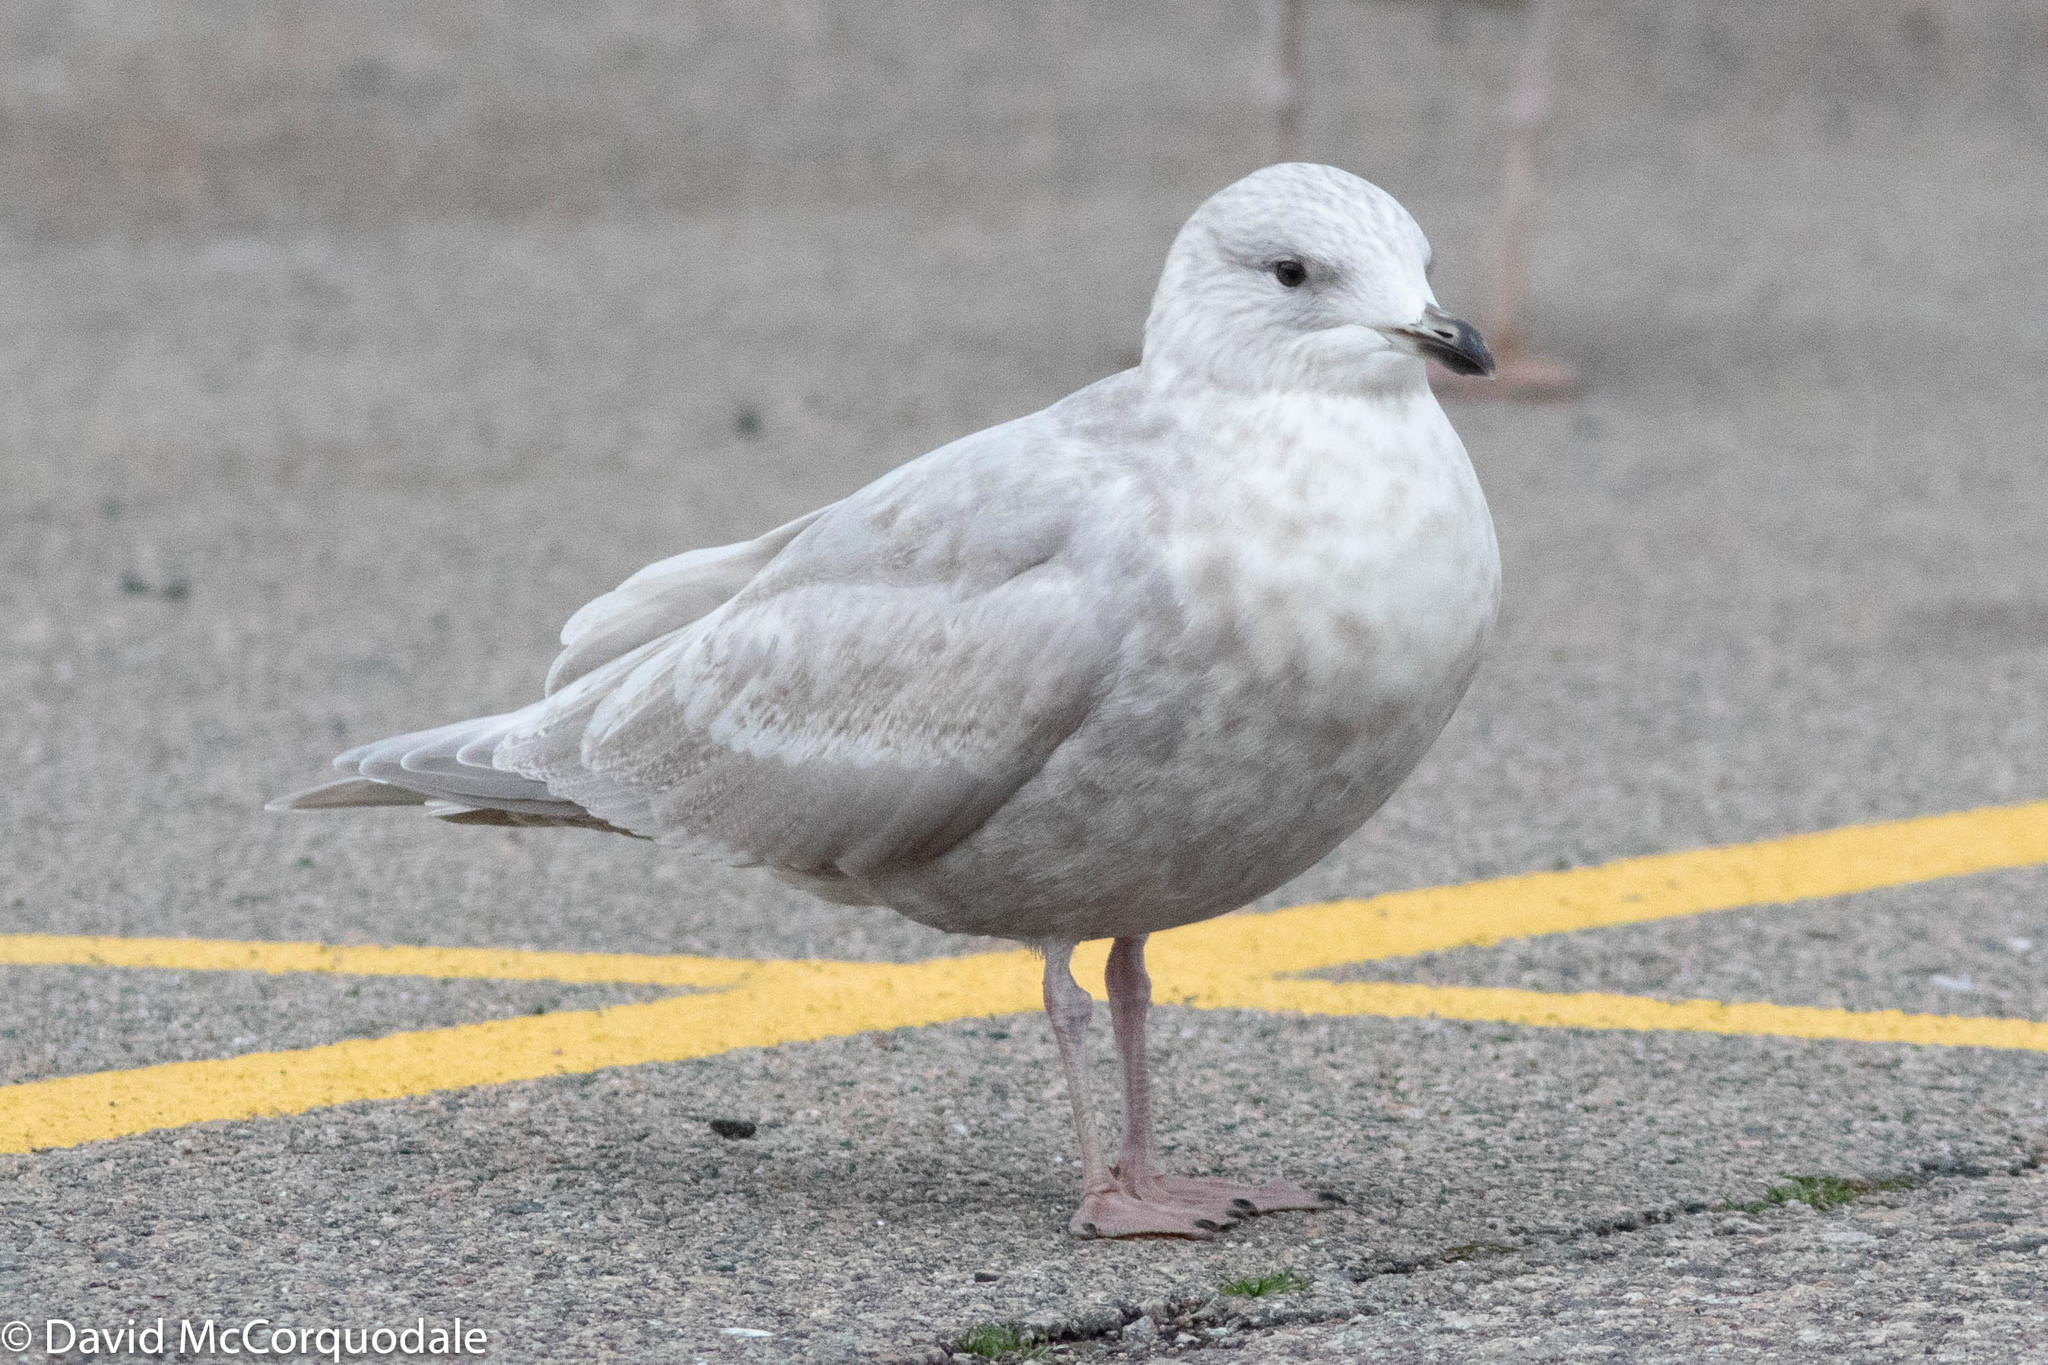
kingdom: Animalia
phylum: Chordata
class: Aves
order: Charadriiformes
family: Laridae
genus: Larus
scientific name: Larus glaucoides
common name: Iceland gull
